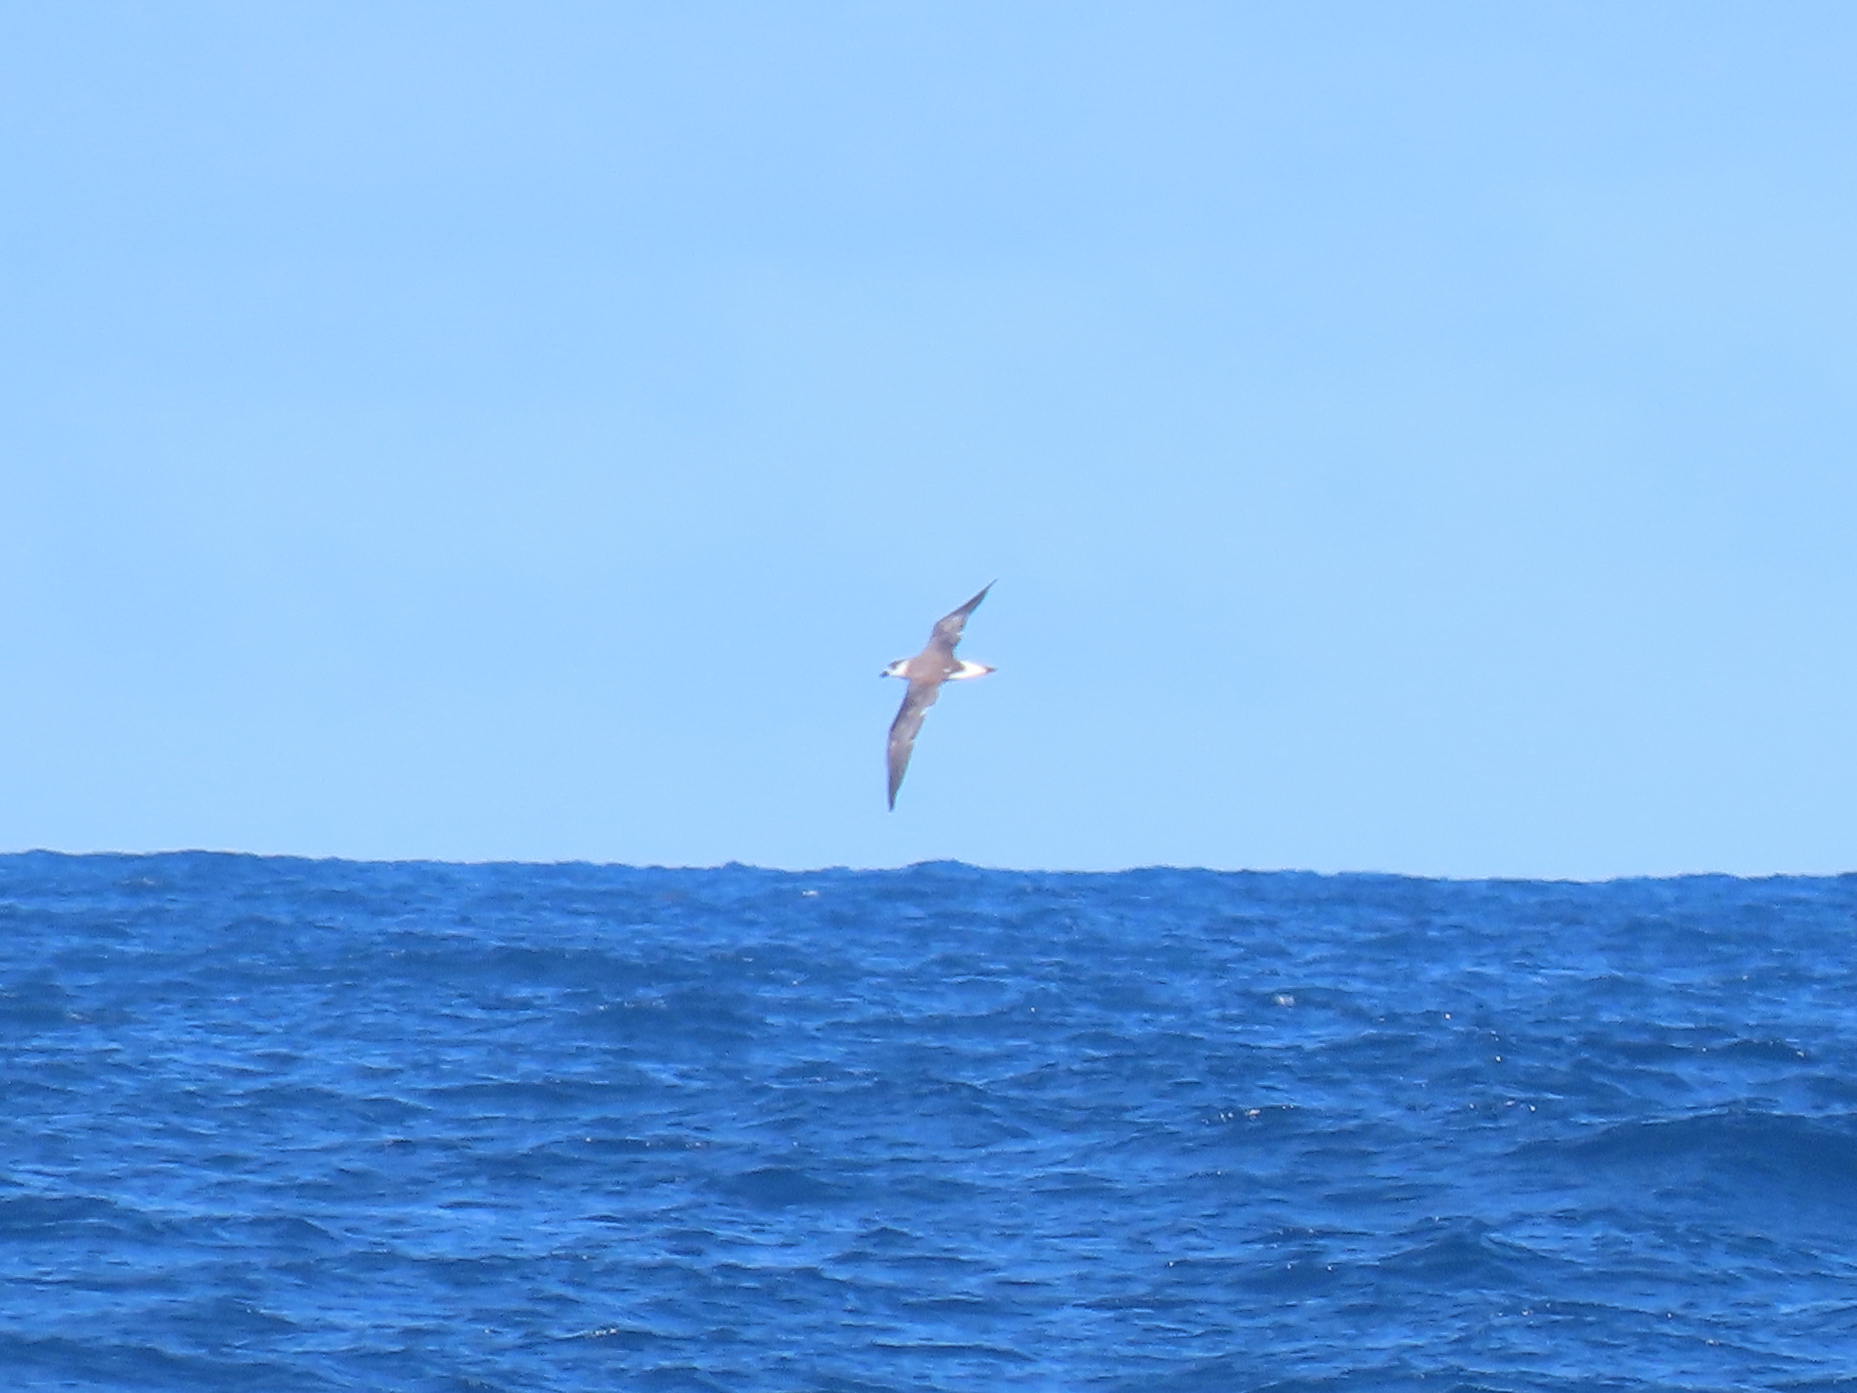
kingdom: Animalia
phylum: Chordata
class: Aves
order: Procellariiformes
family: Procellariidae
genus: Pterodroma
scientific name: Pterodroma hasitata
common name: Black-capped petrel
